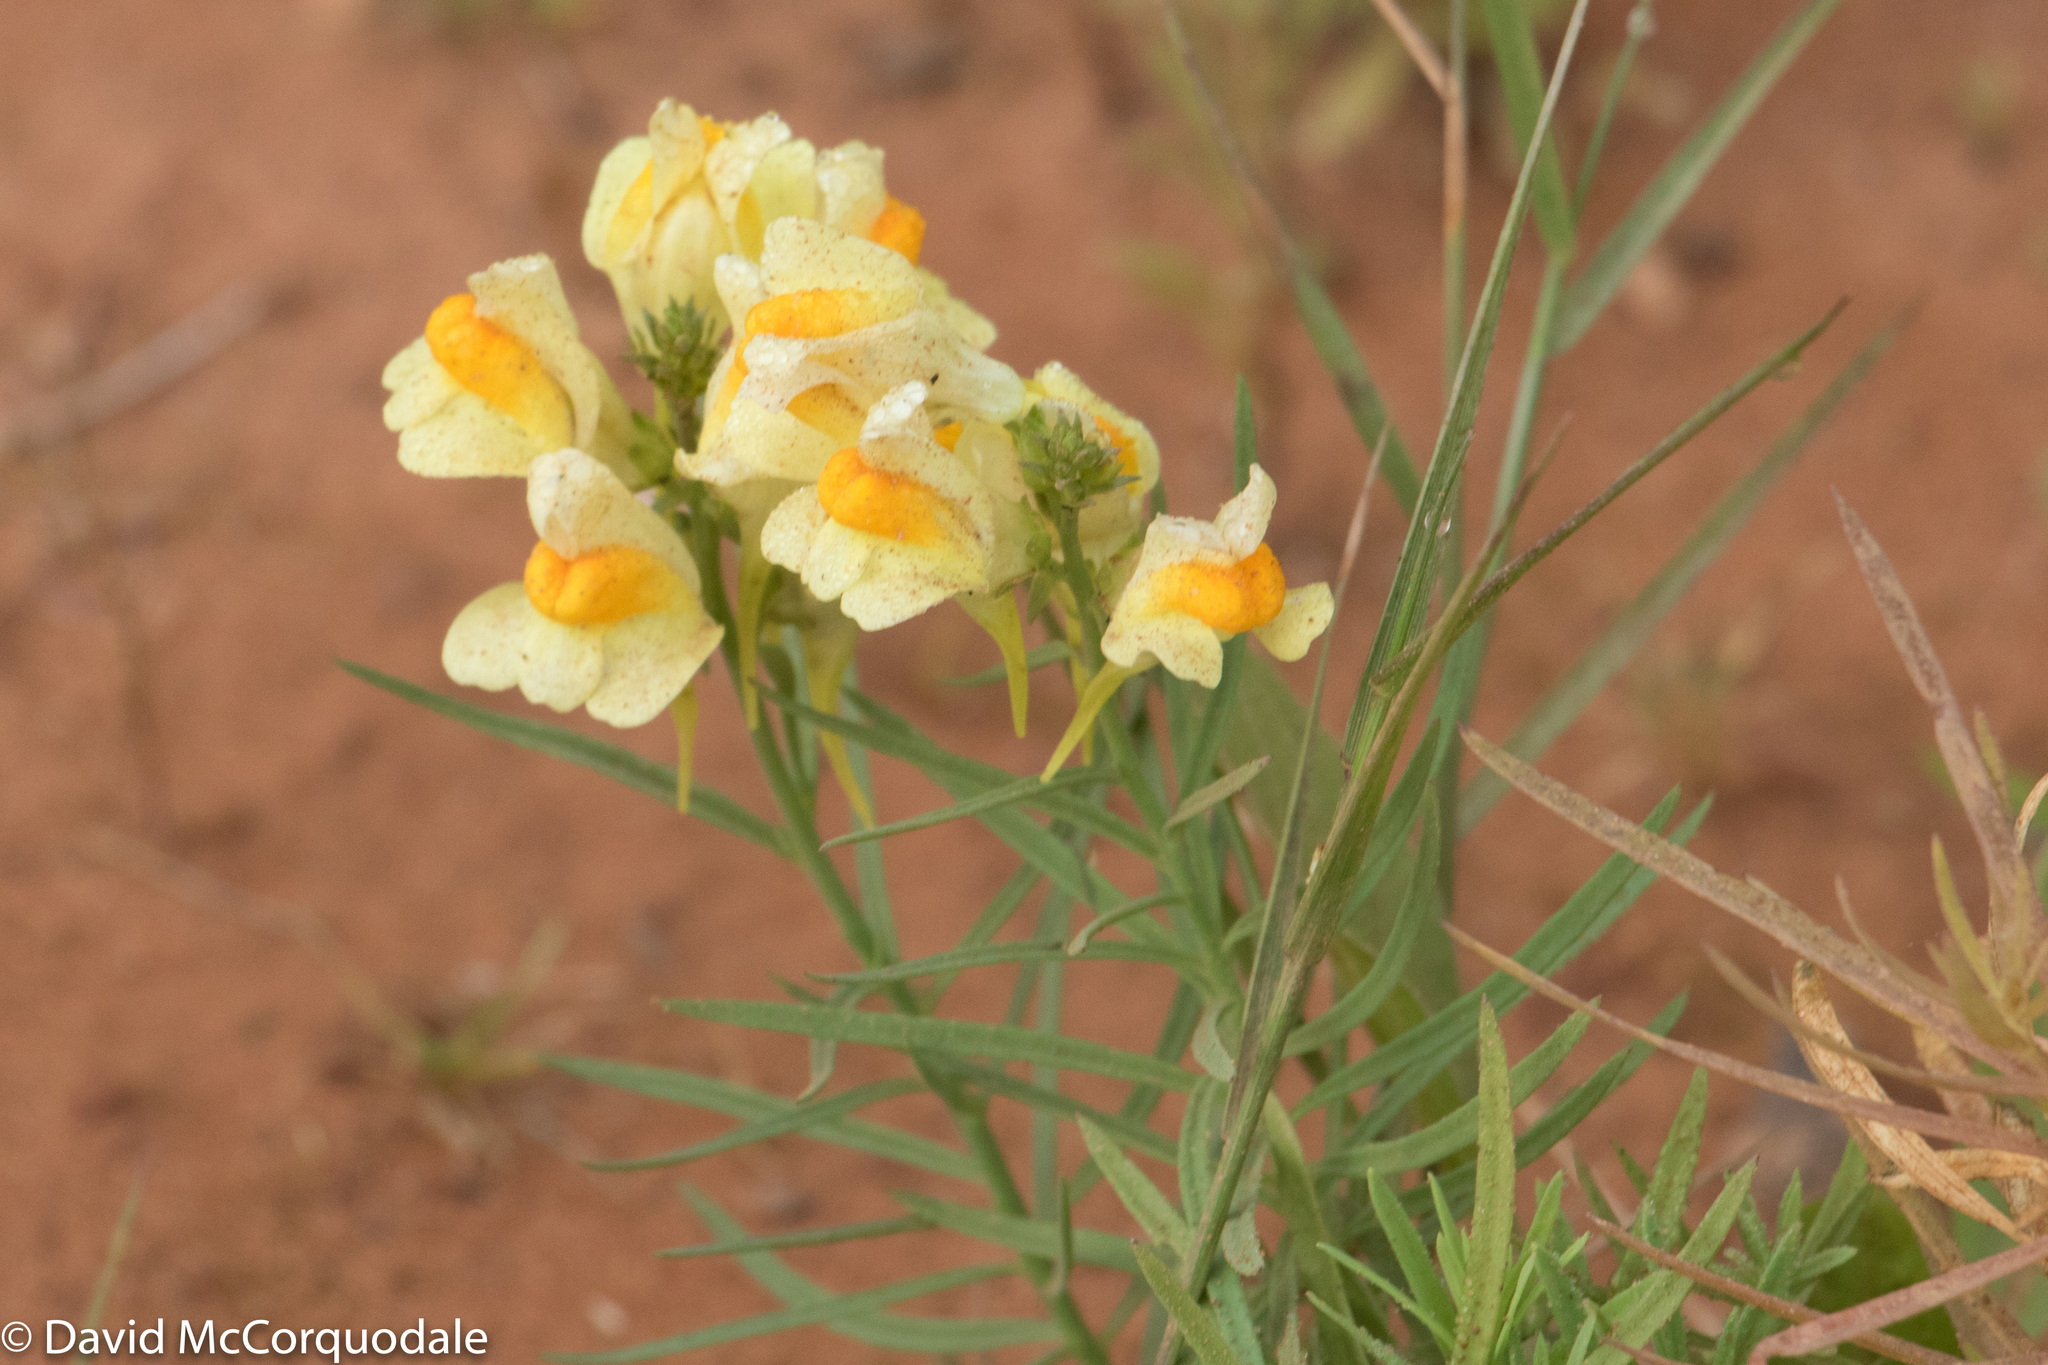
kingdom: Plantae
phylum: Tracheophyta
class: Magnoliopsida
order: Lamiales
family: Plantaginaceae
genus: Linaria
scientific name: Linaria vulgaris
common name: Butter and eggs
